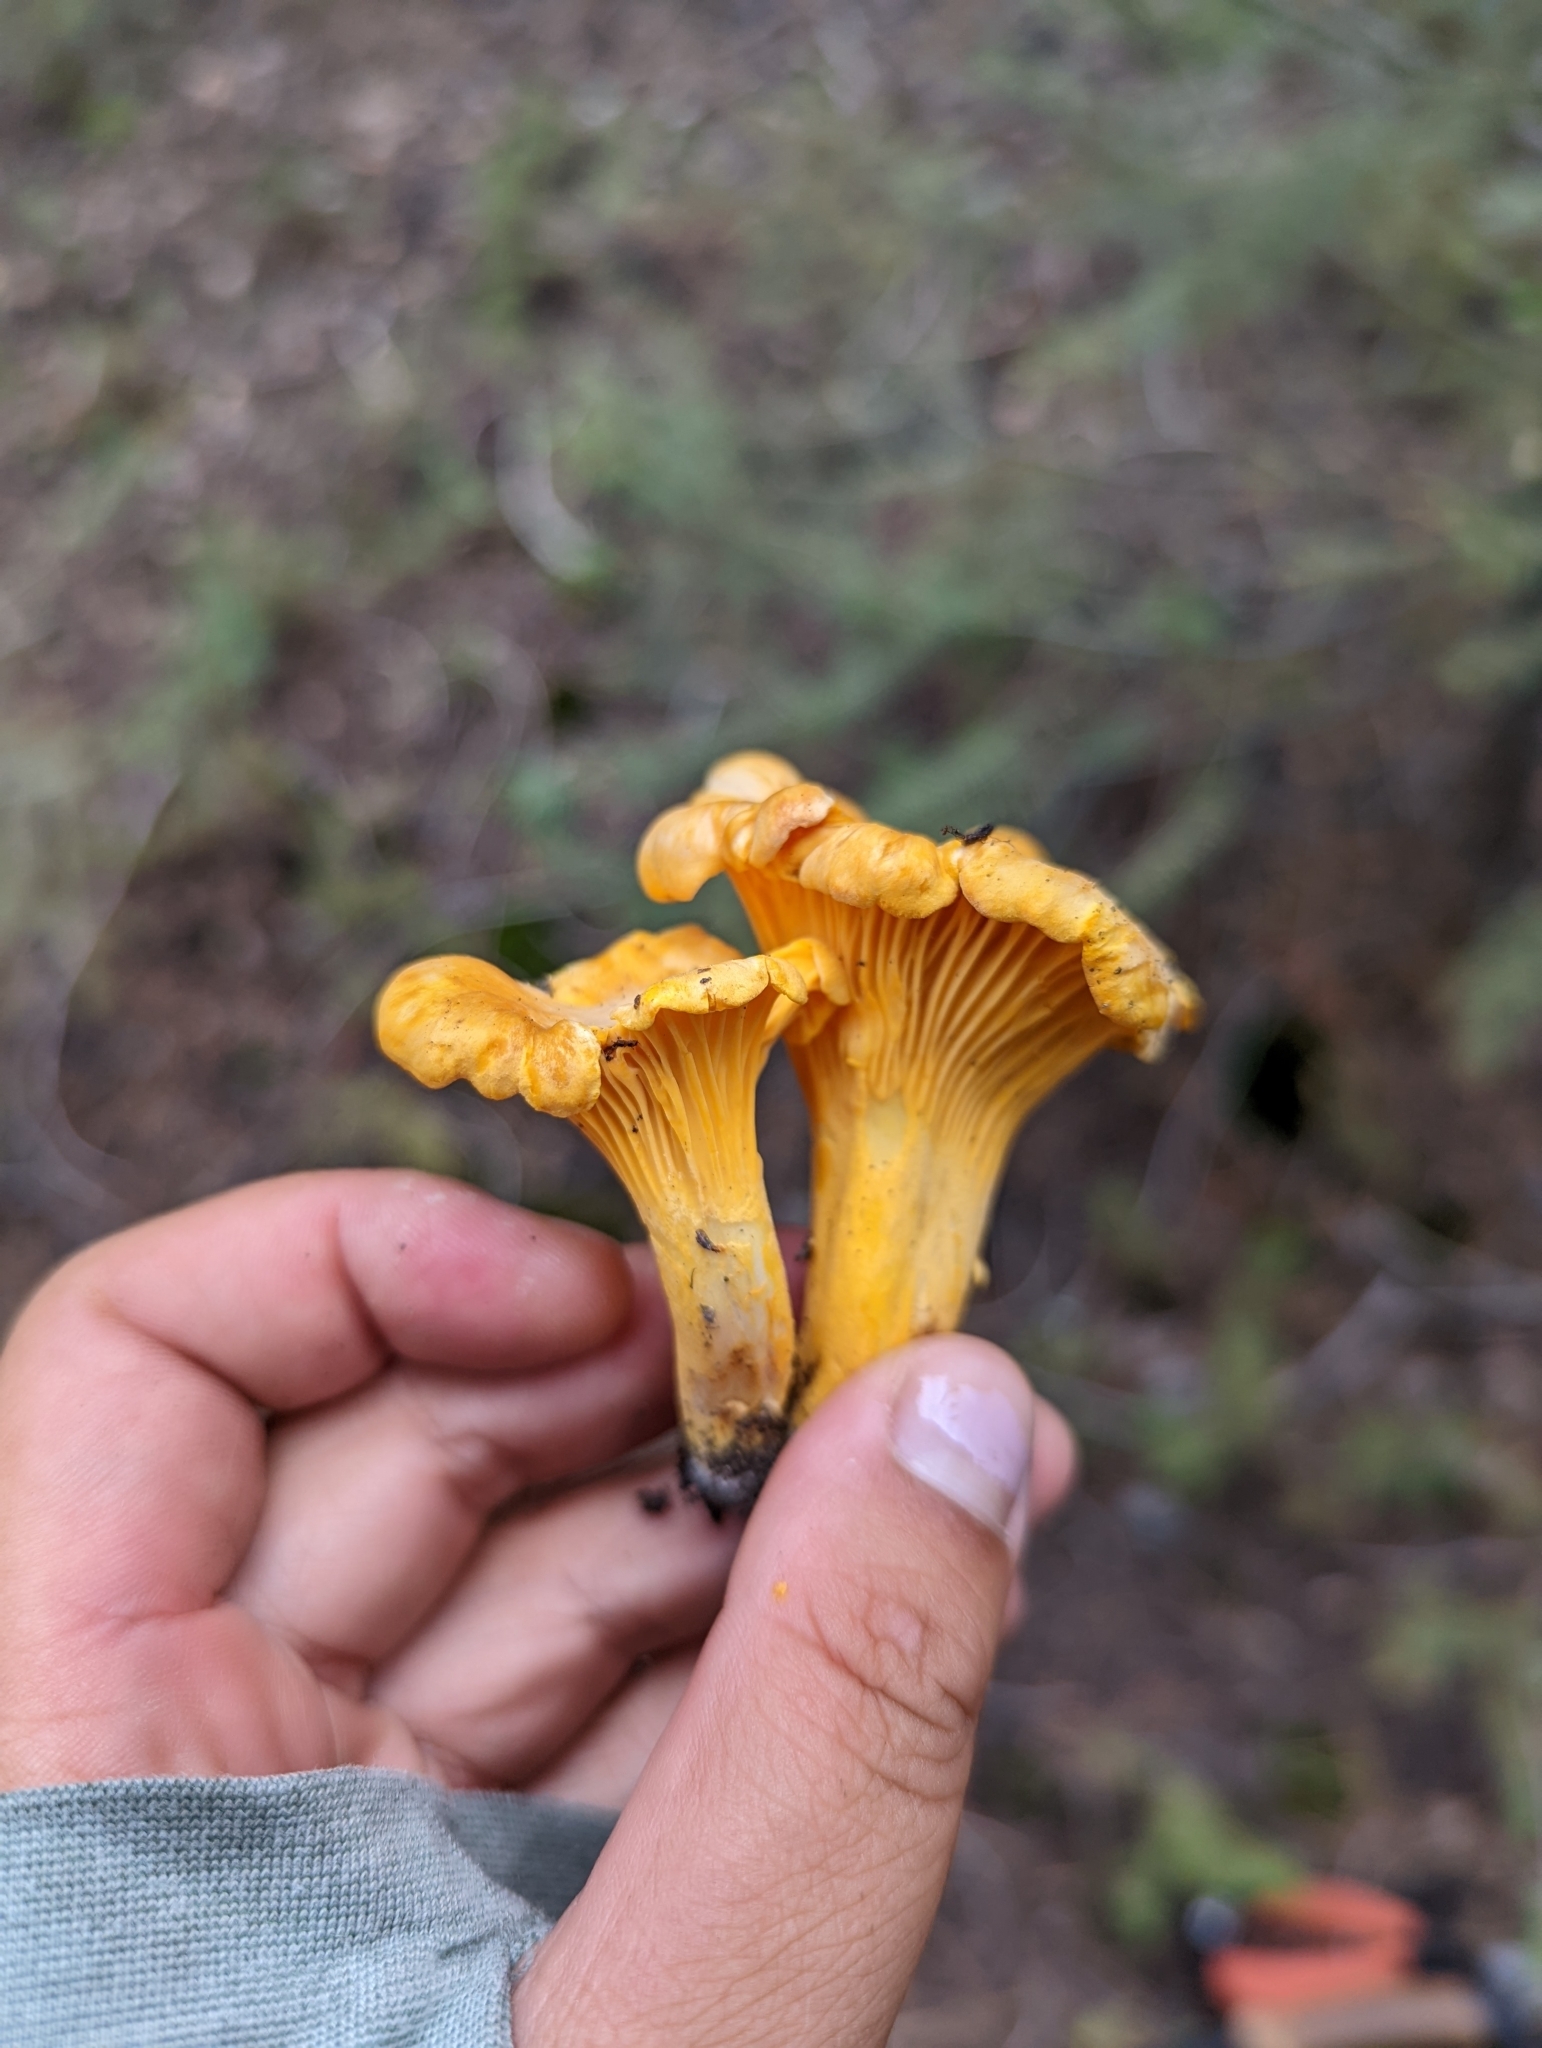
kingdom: Fungi
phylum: Basidiomycota
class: Agaricomycetes
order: Cantharellales
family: Hydnaceae
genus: Cantharellus
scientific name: Cantharellus roseocanus
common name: Rainbow chanterelle
